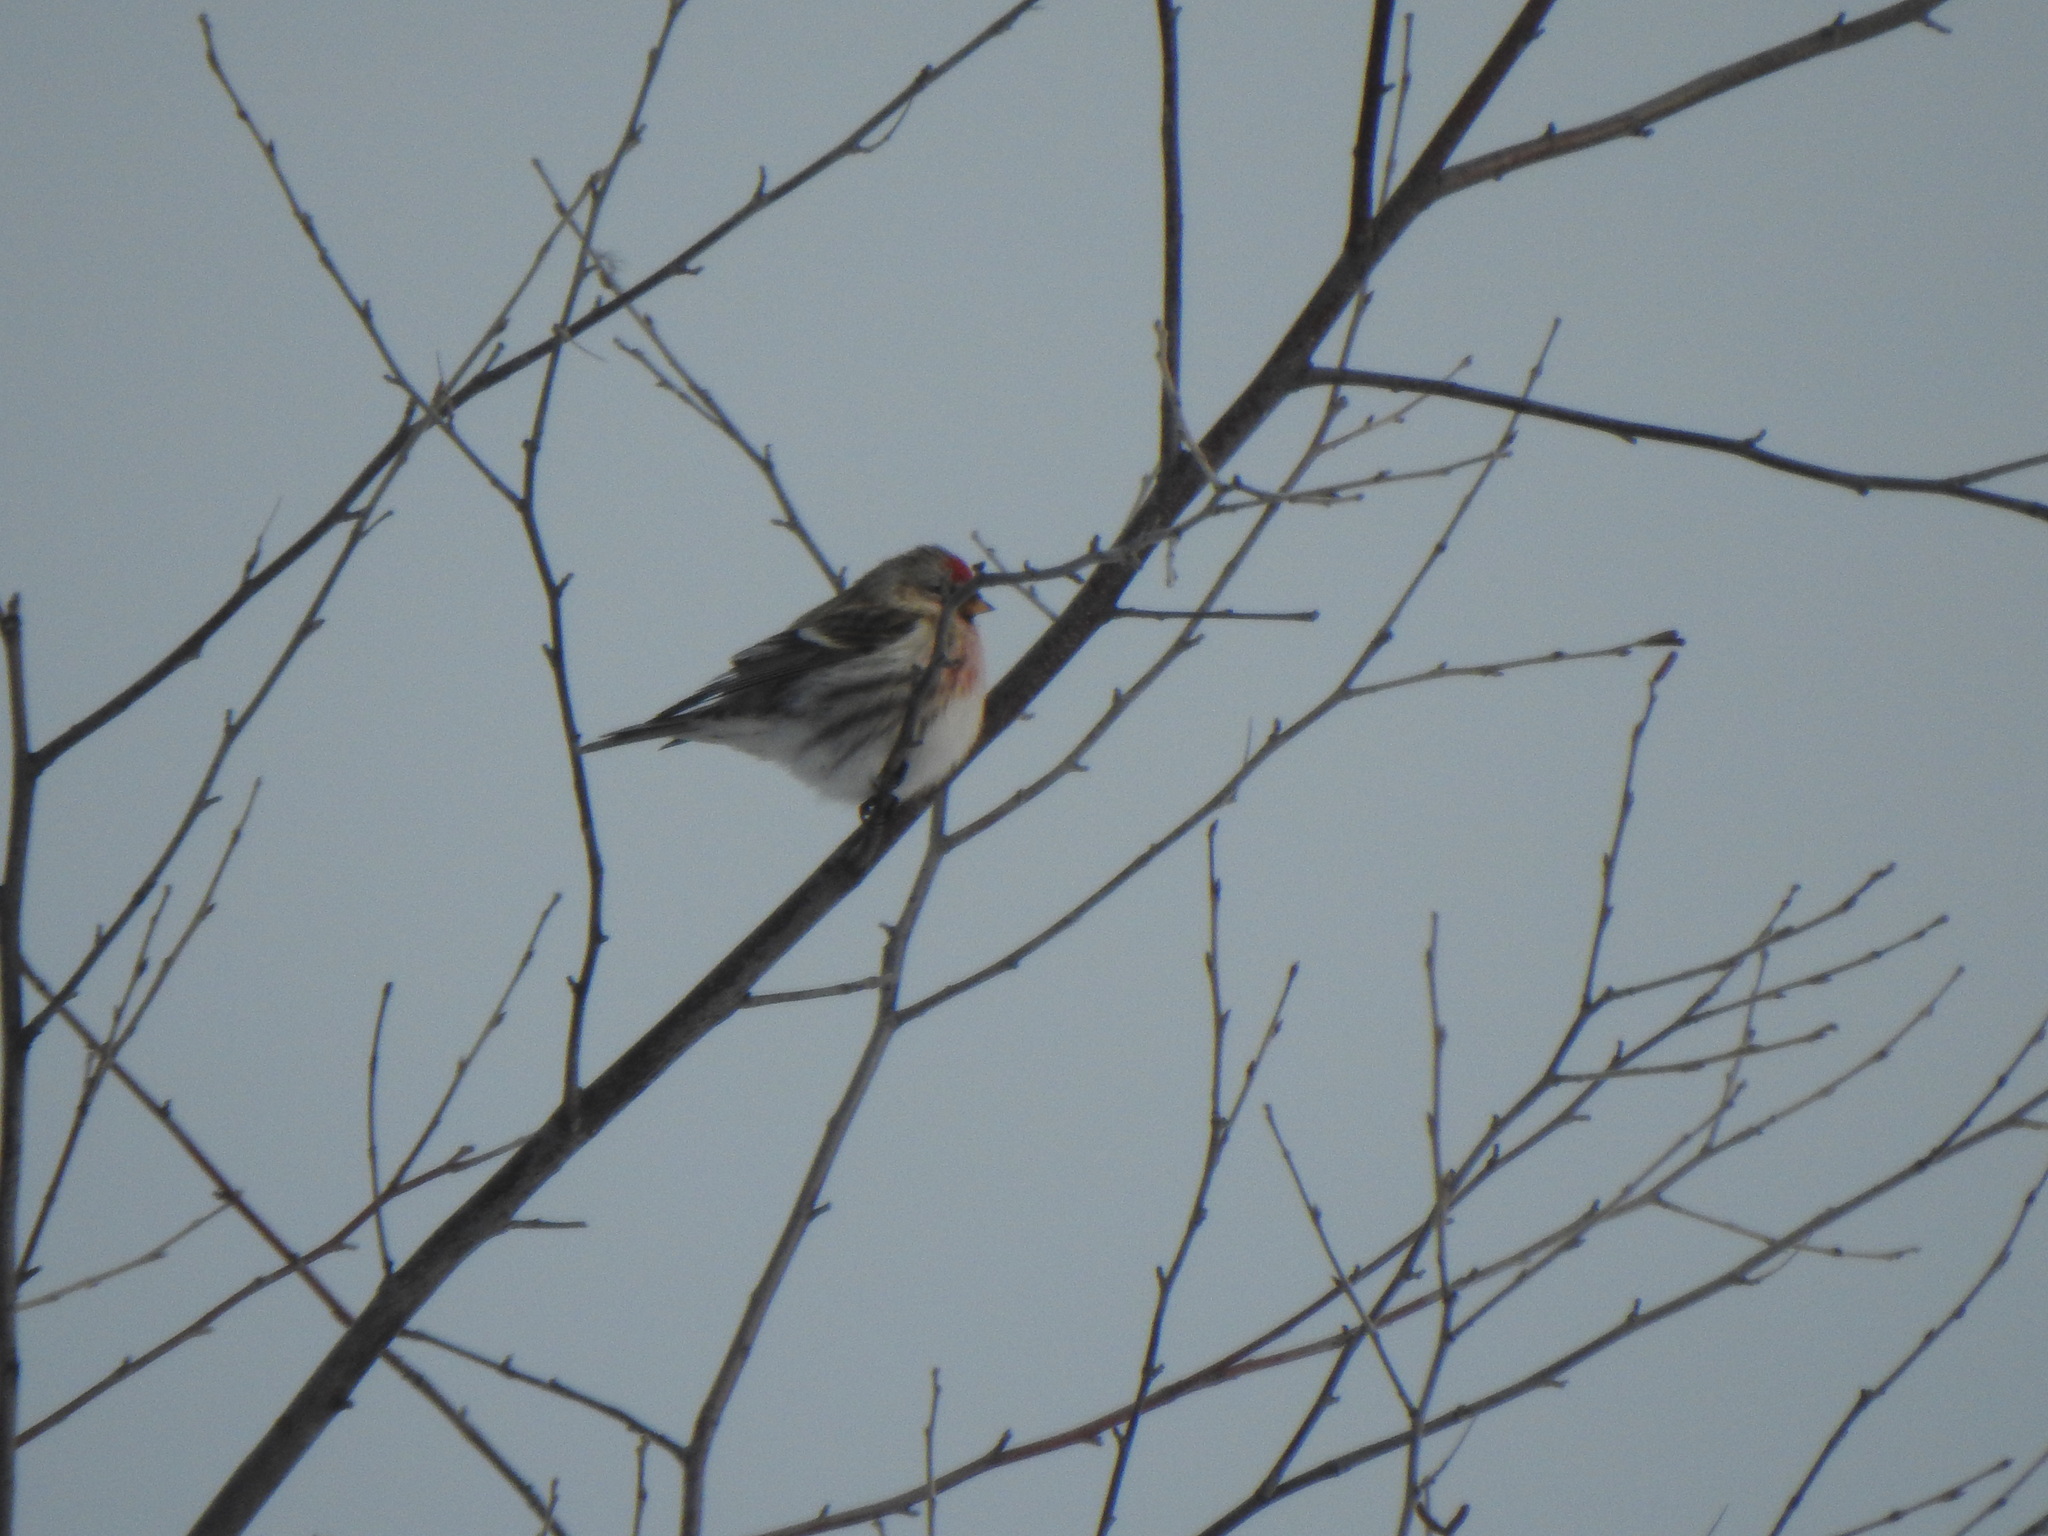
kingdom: Animalia
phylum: Chordata
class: Aves
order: Passeriformes
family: Fringillidae
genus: Acanthis
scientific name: Acanthis flammea
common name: Common redpoll
